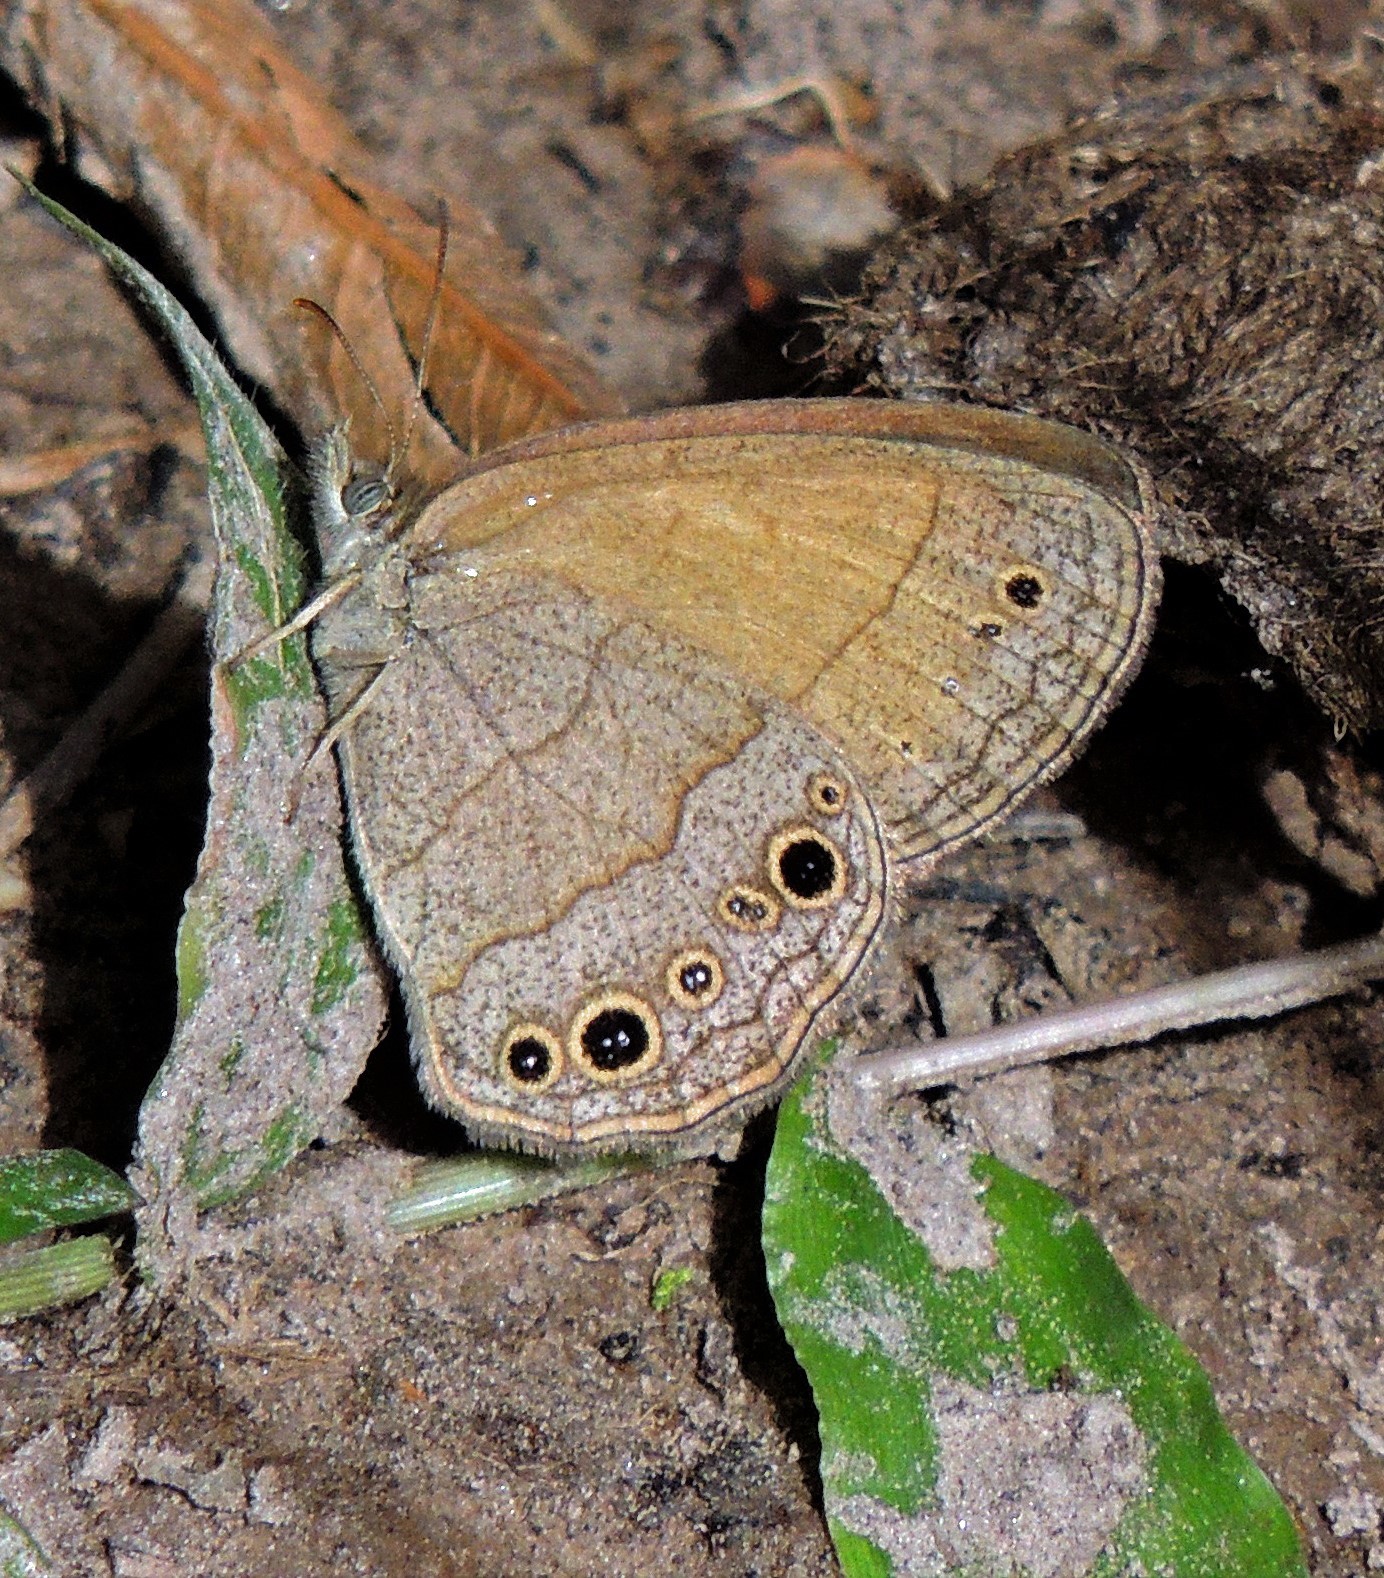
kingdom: Animalia
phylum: Arthropoda
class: Insecta
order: Lepidoptera
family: Nymphalidae
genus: Yphthimoides
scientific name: Yphthimoides celmis
